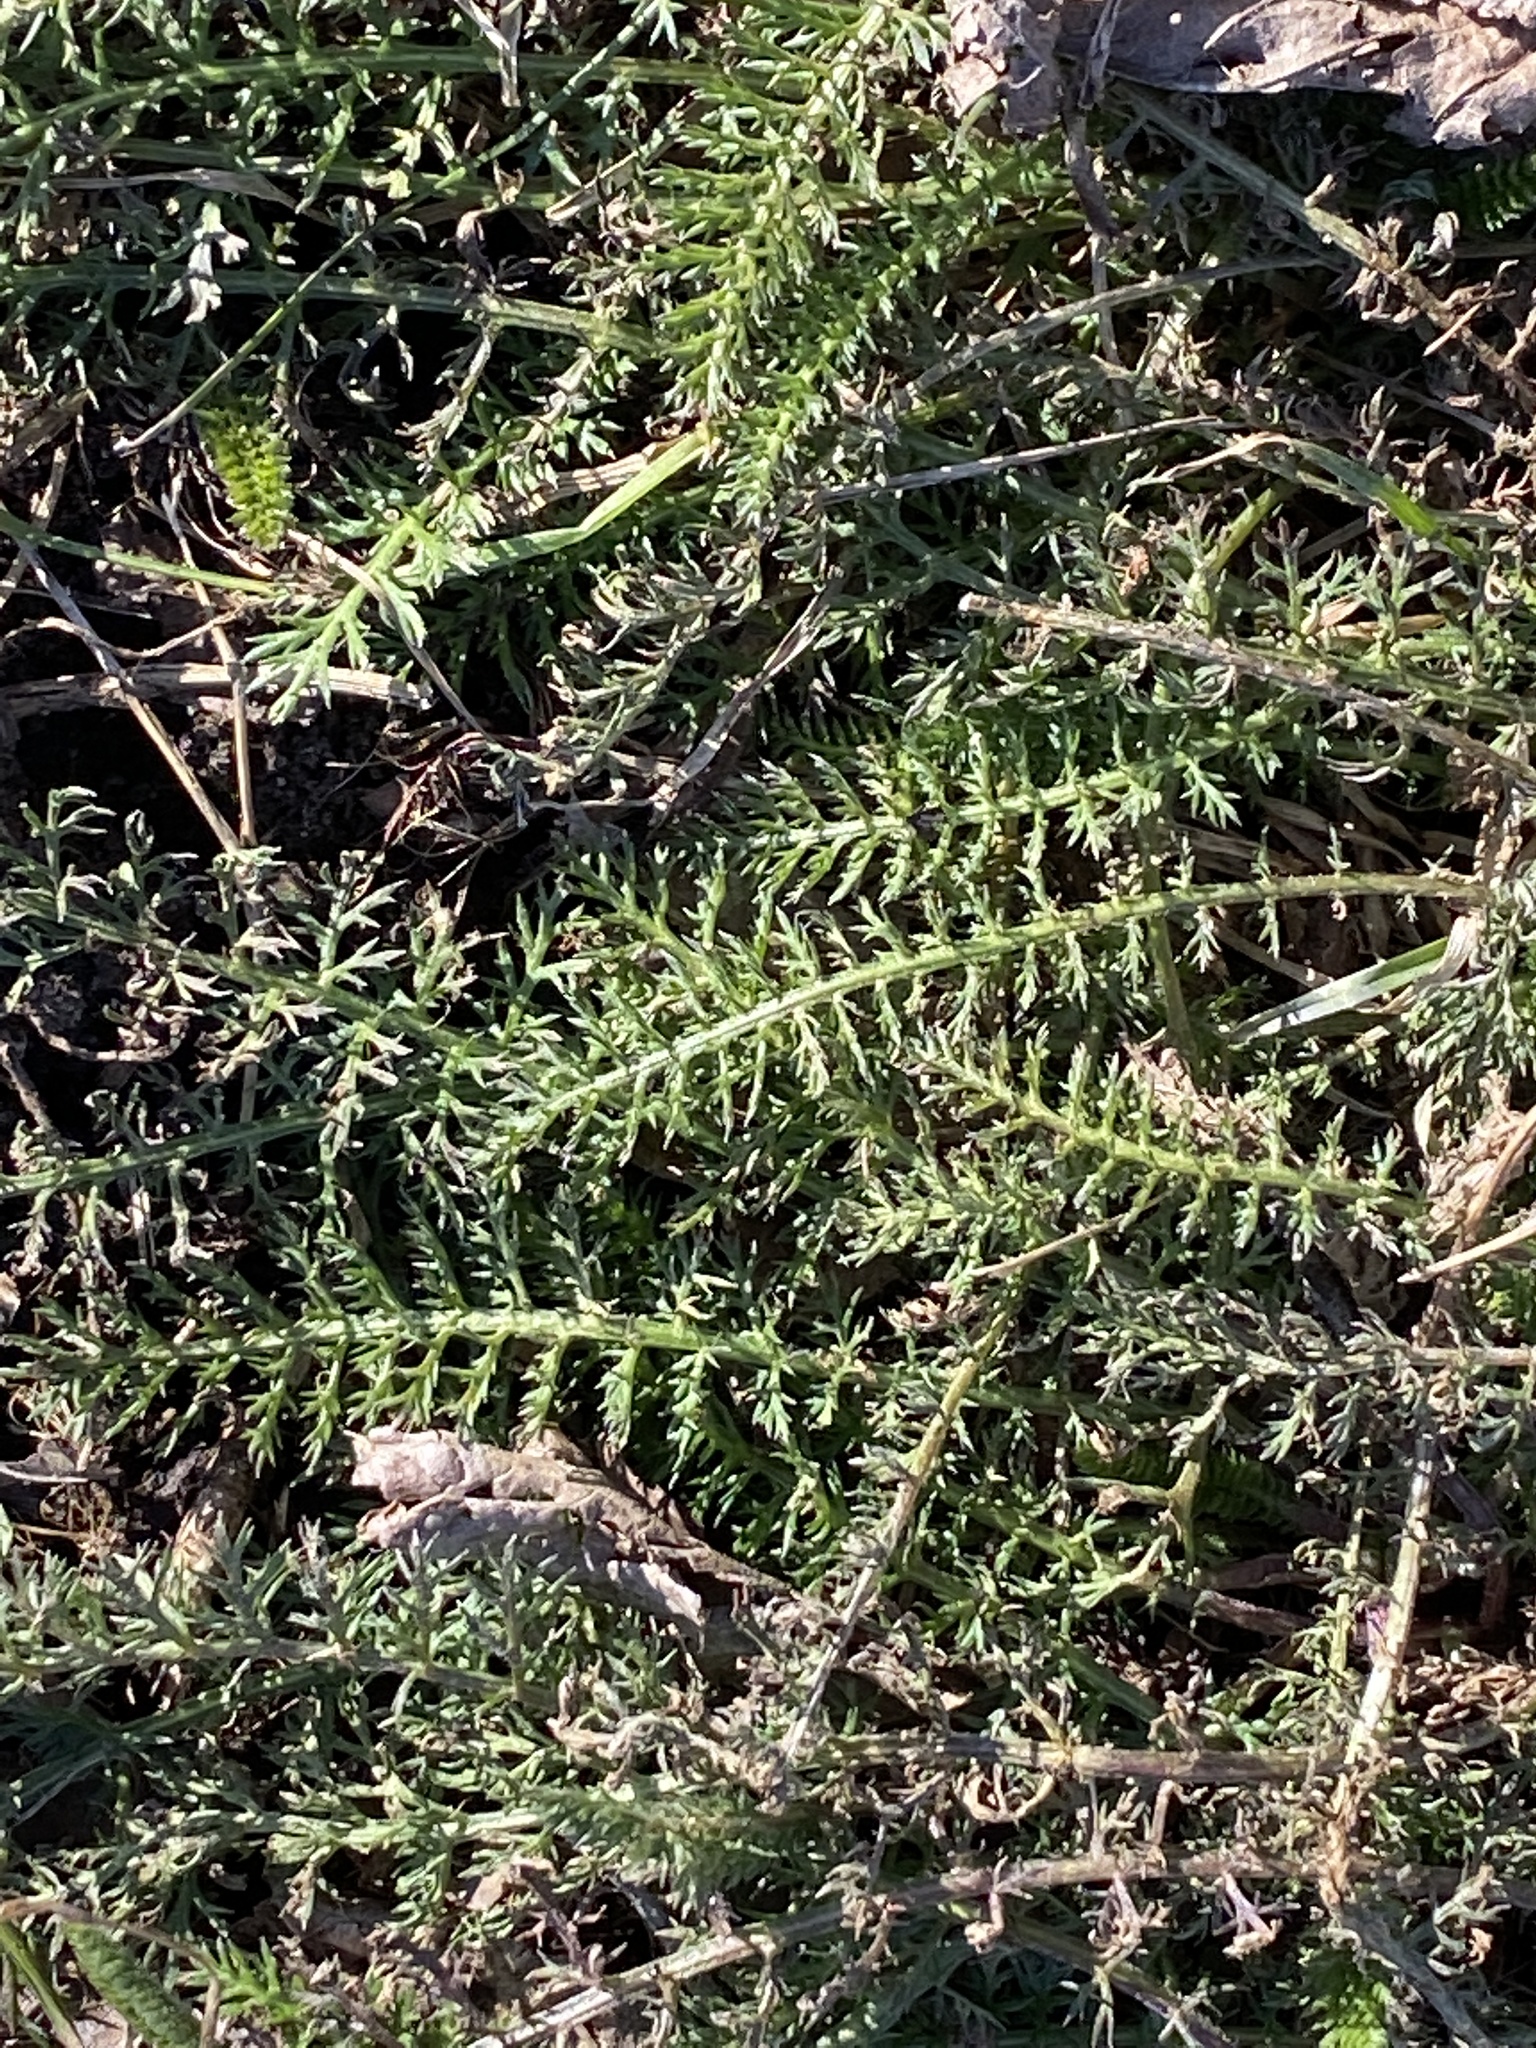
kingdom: Plantae
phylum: Tracheophyta
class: Magnoliopsida
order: Asterales
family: Asteraceae
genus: Achillea
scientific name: Achillea millefolium
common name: Yarrow
